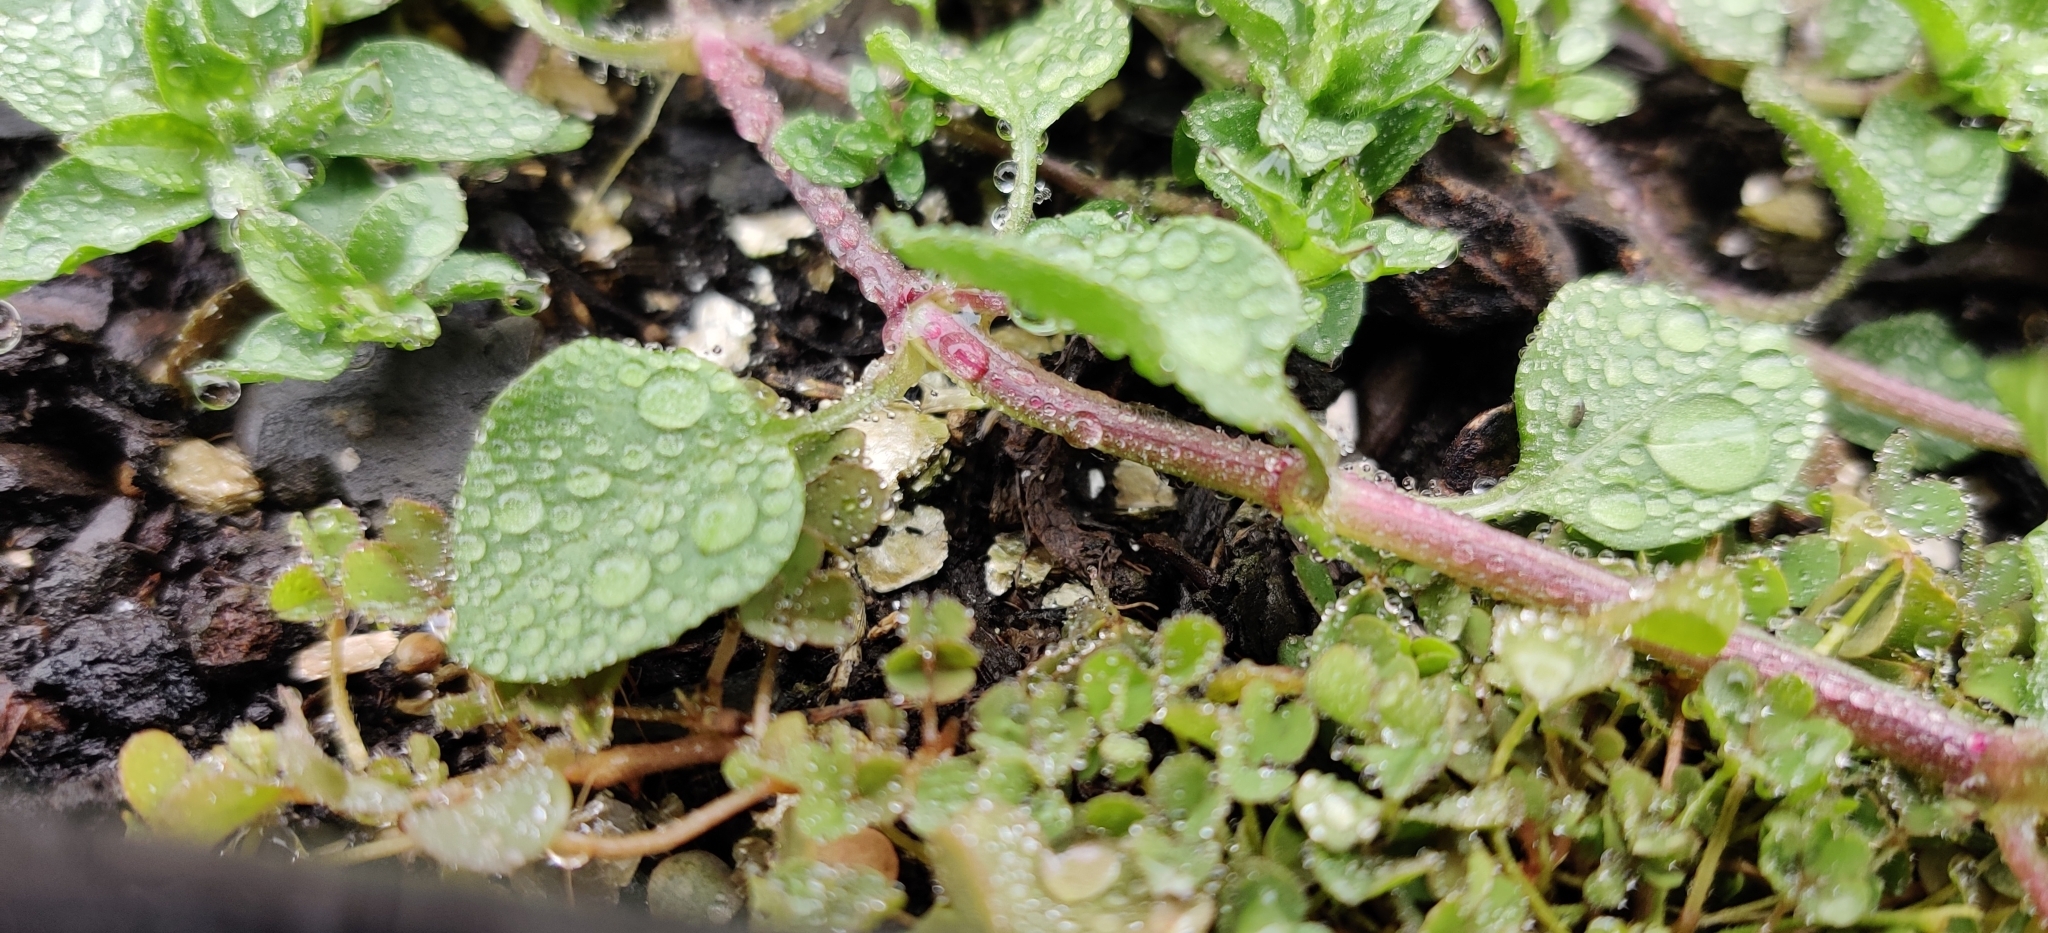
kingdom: Plantae
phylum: Tracheophyta
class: Magnoliopsida
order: Caryophyllales
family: Caryophyllaceae
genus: Stellaria
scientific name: Stellaria media
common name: Common chickweed
